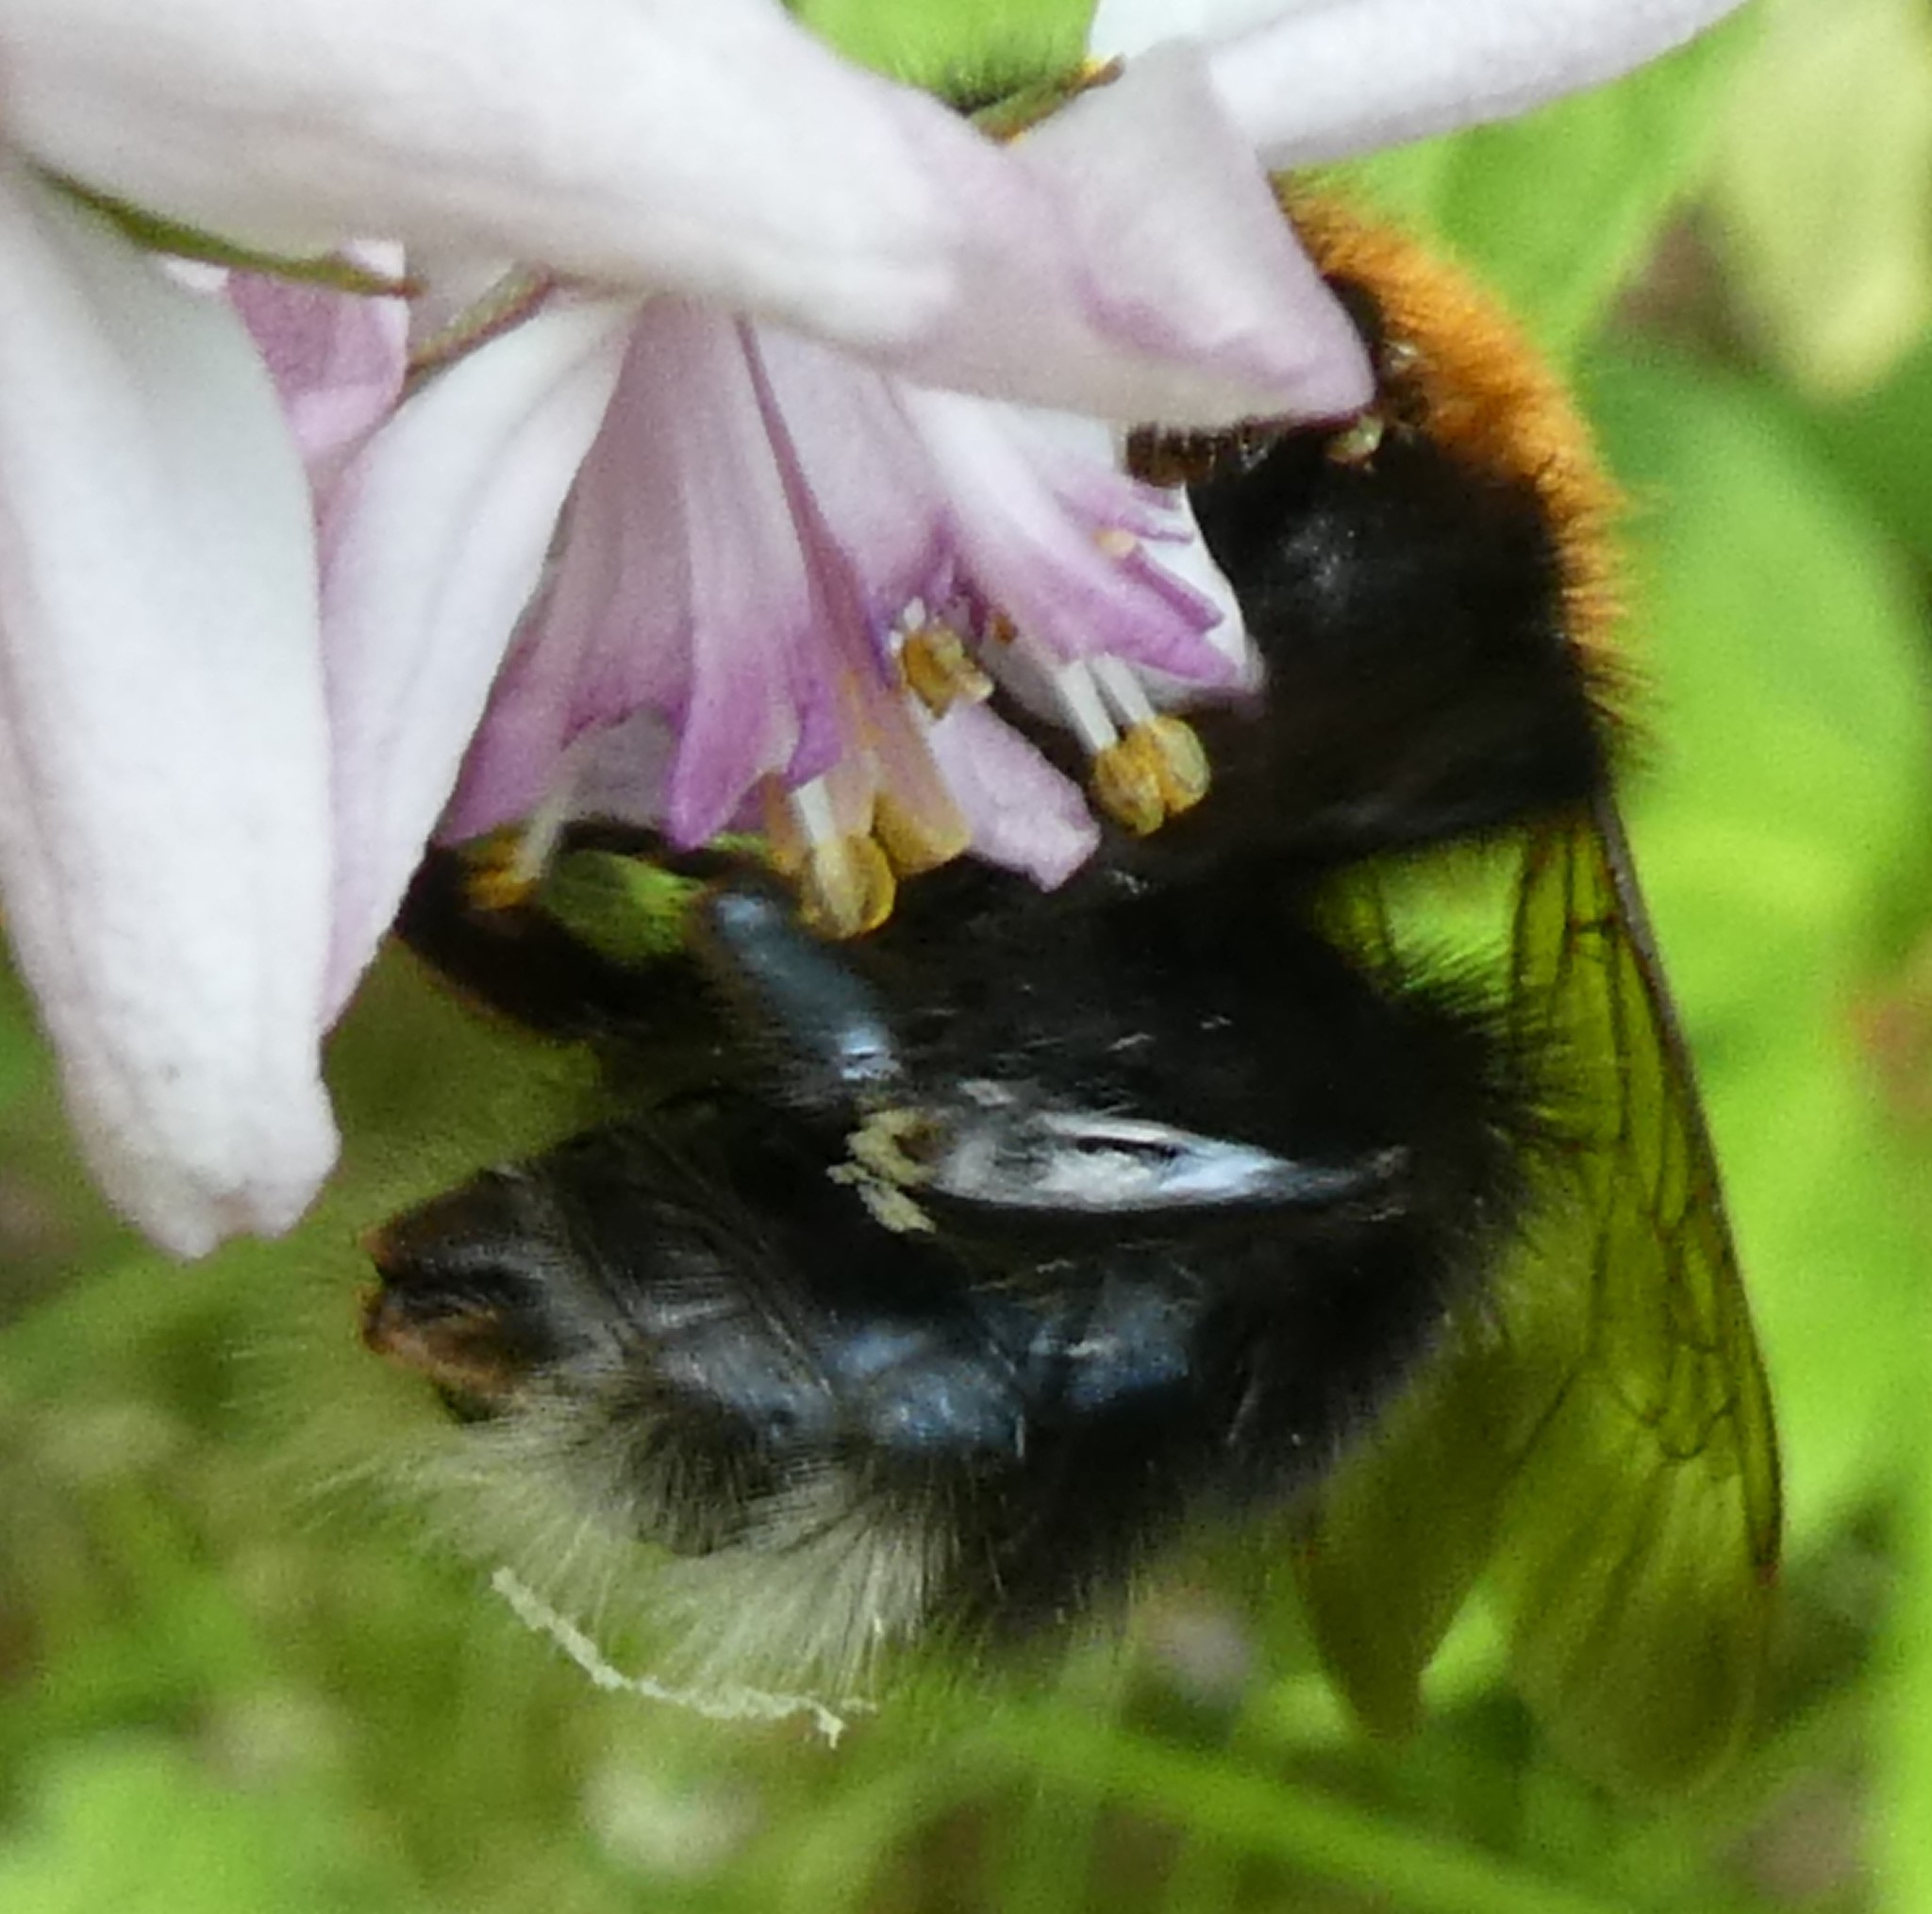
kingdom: Animalia
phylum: Arthropoda
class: Insecta
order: Hymenoptera
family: Apidae
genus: Bombus
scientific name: Bombus hypnorum
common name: New garden bumblebee
